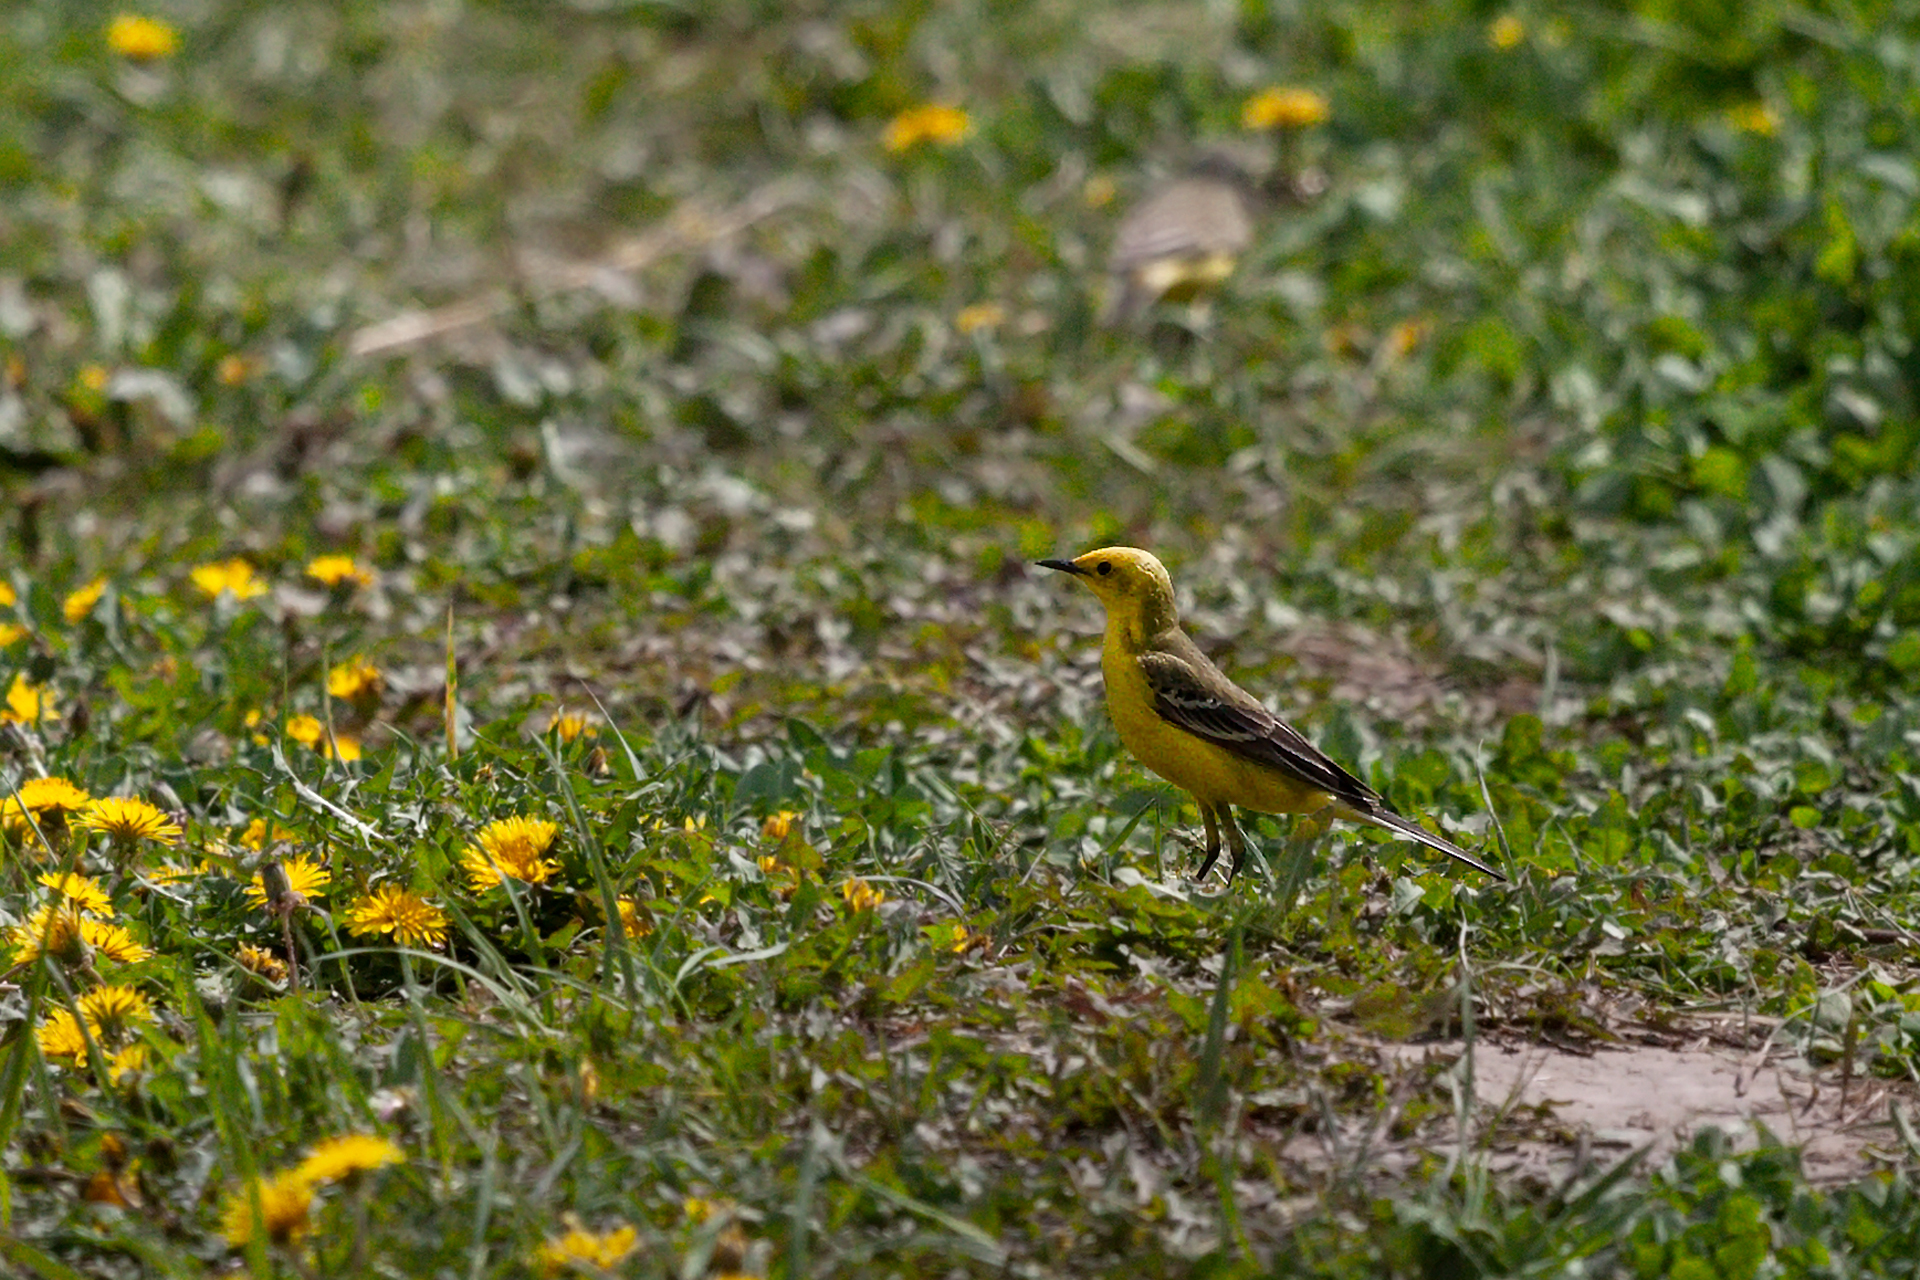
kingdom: Animalia
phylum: Chordata
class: Aves
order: Passeriformes
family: Motacillidae
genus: Motacilla
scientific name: Motacilla flava
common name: Western yellow wagtail
